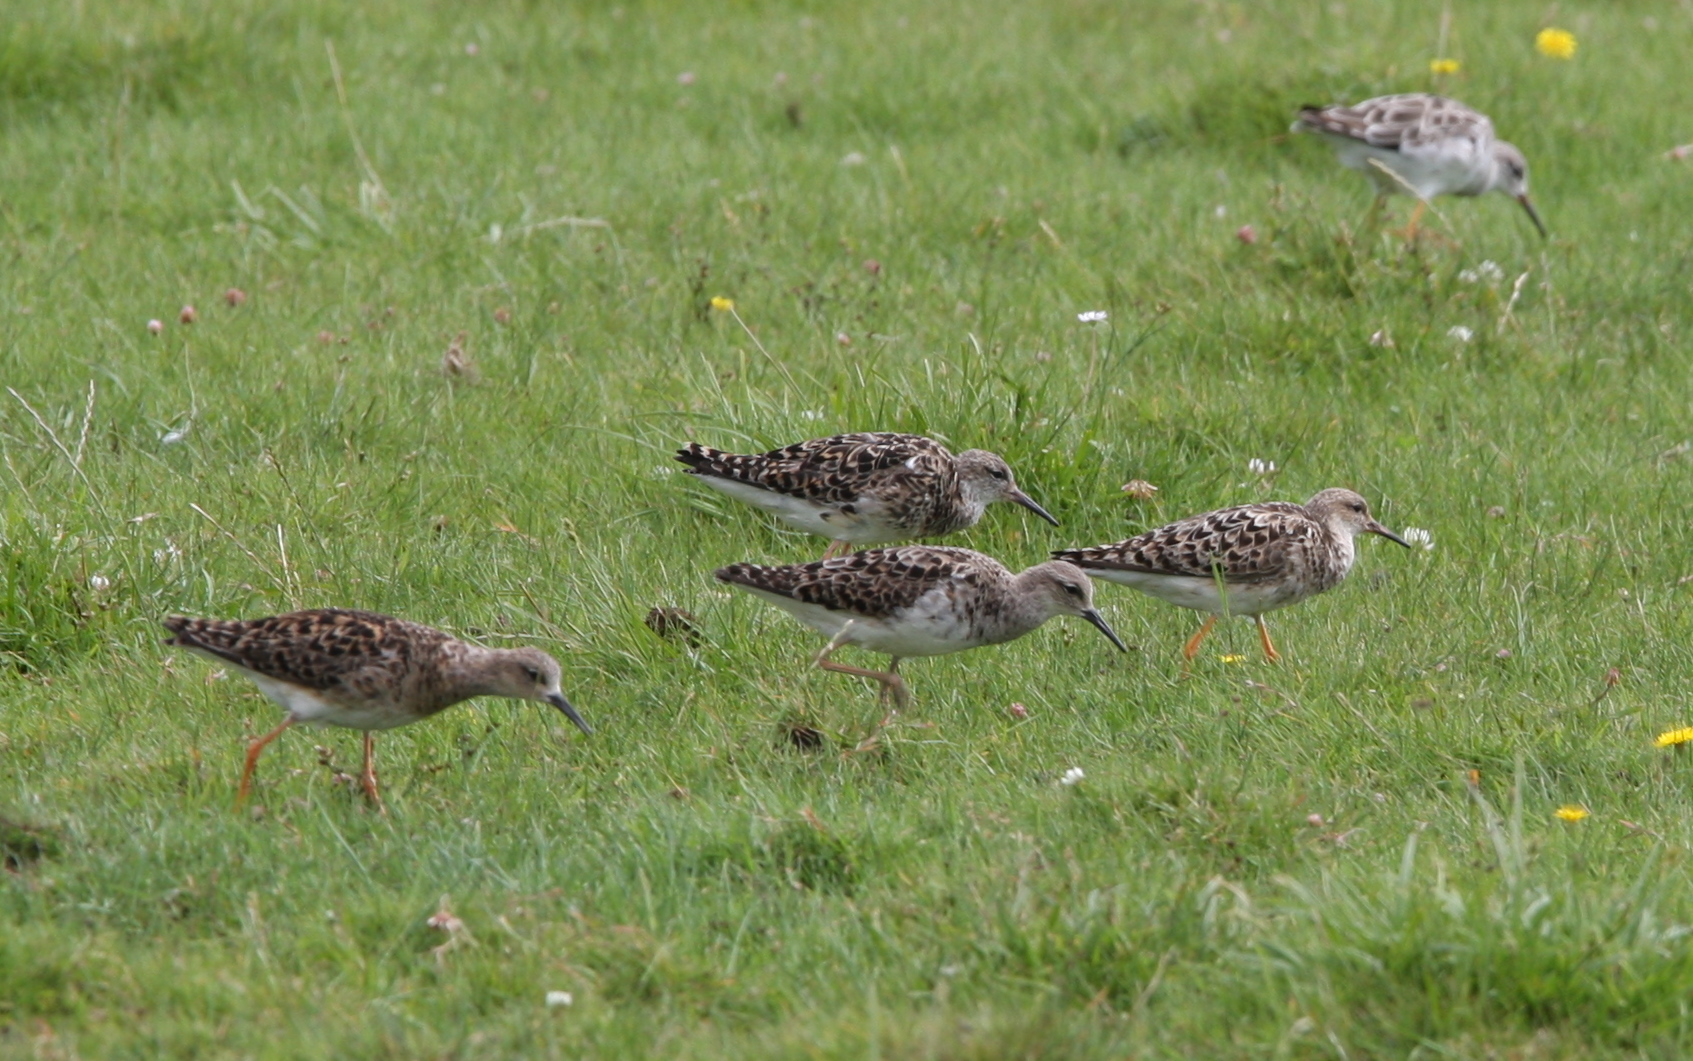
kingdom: Animalia
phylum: Chordata
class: Aves
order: Charadriiformes
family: Scolopacidae
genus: Calidris
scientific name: Calidris pugnax
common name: Ruff
